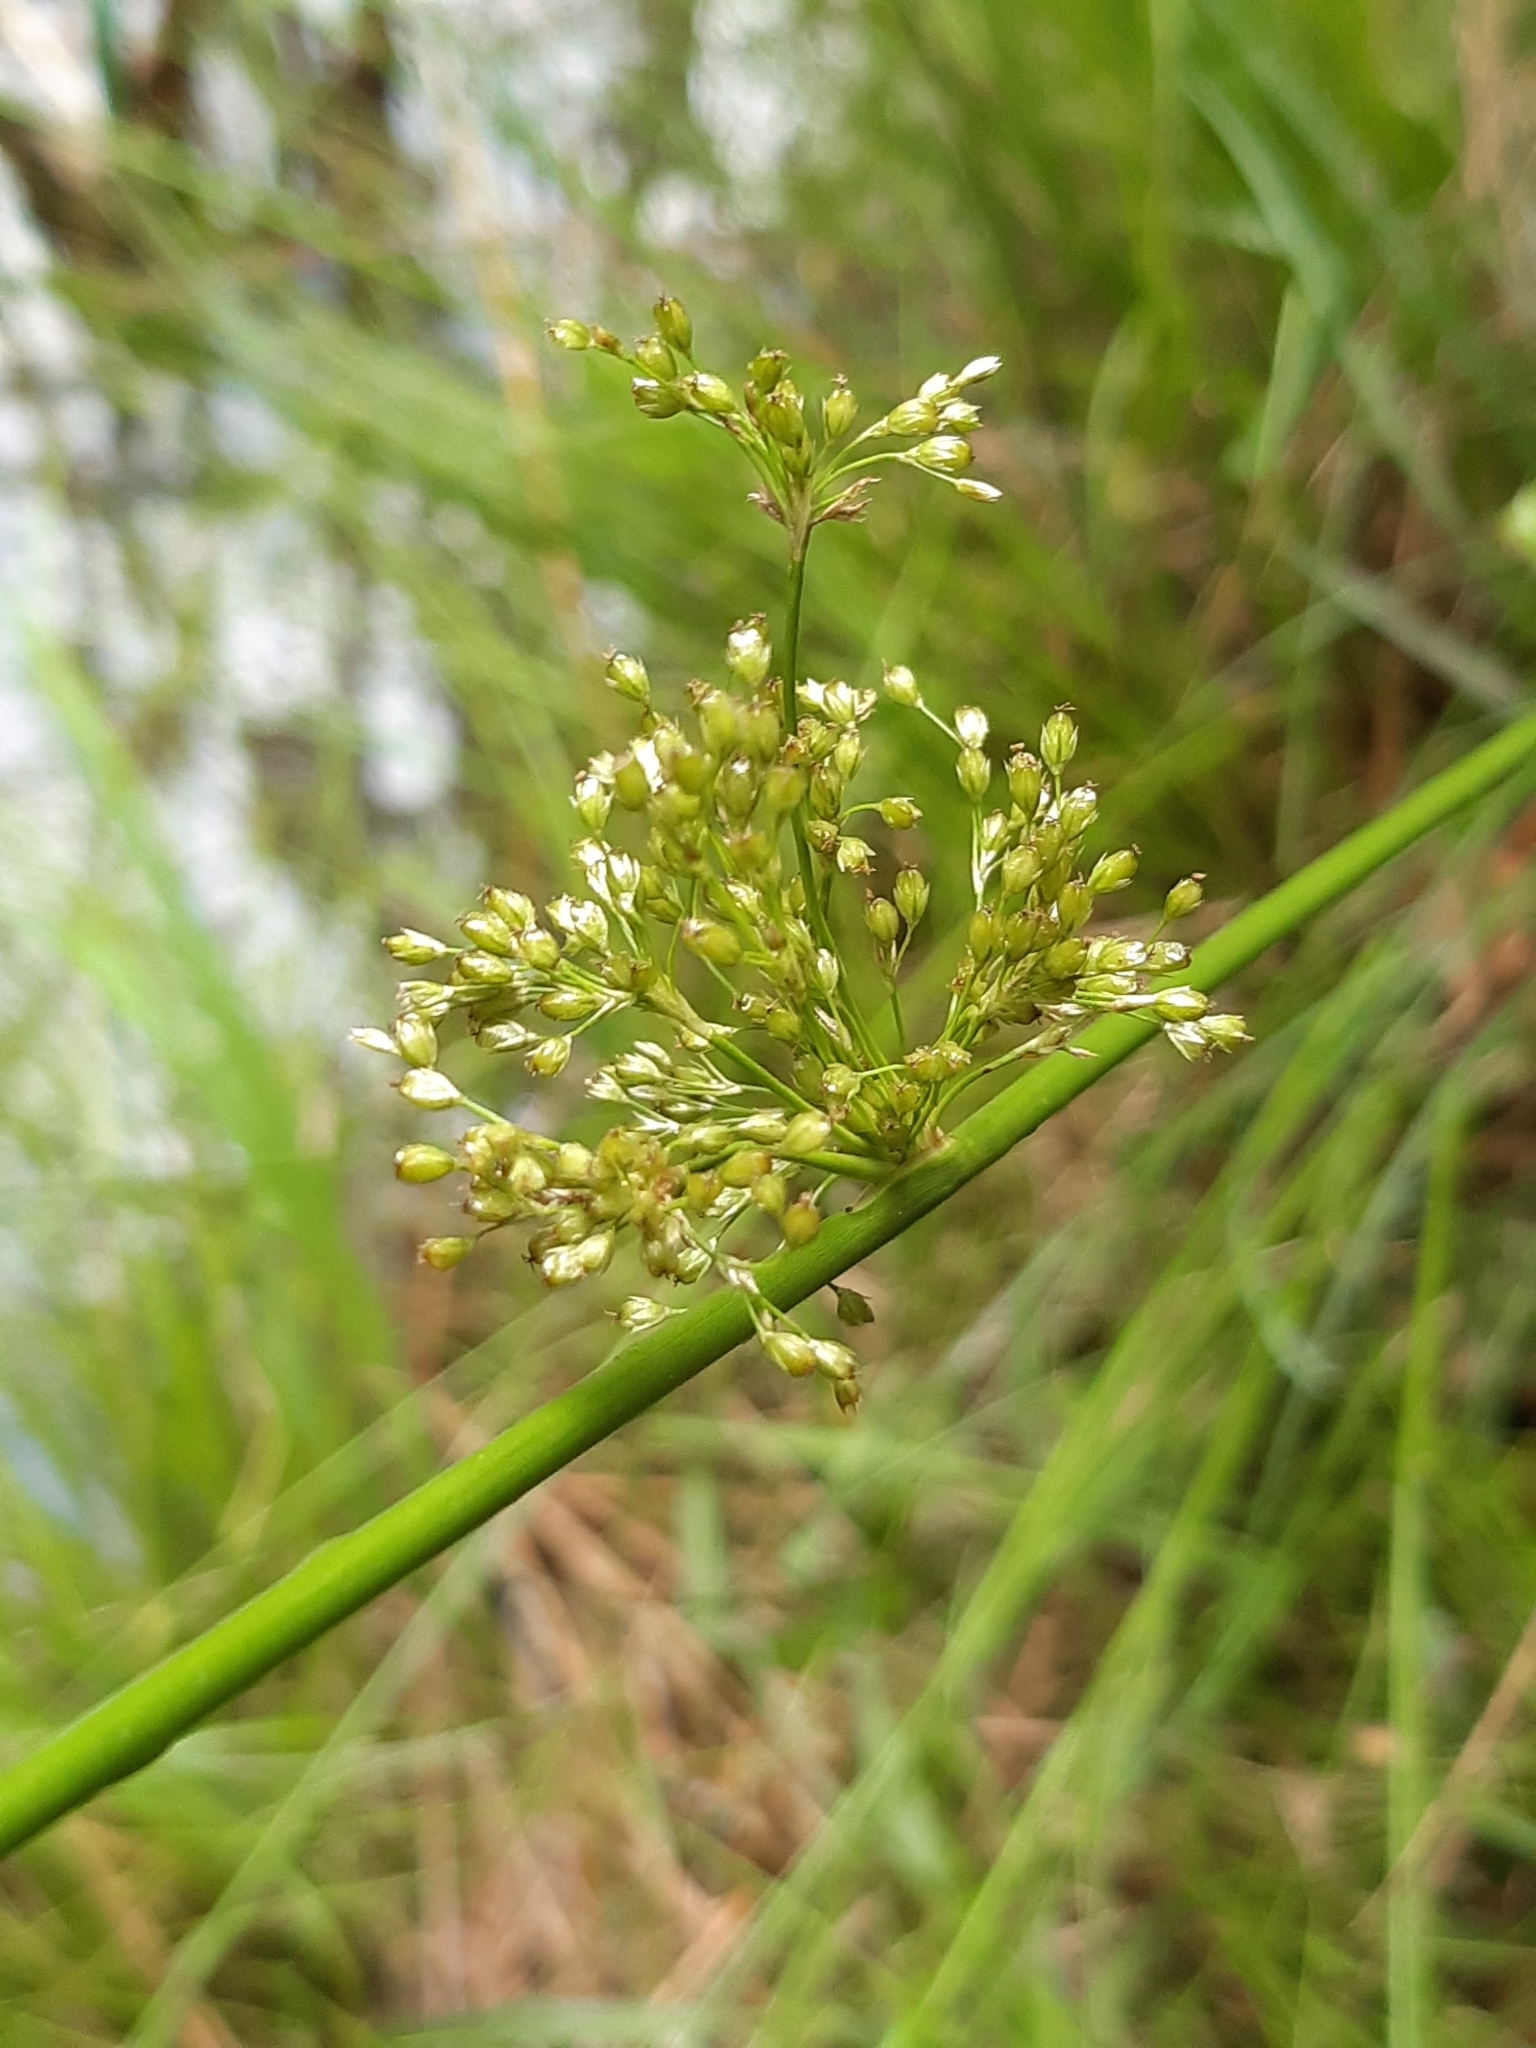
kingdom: Plantae
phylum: Tracheophyta
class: Liliopsida
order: Poales
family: Juncaceae
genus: Juncus
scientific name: Juncus effusus
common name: Soft rush
